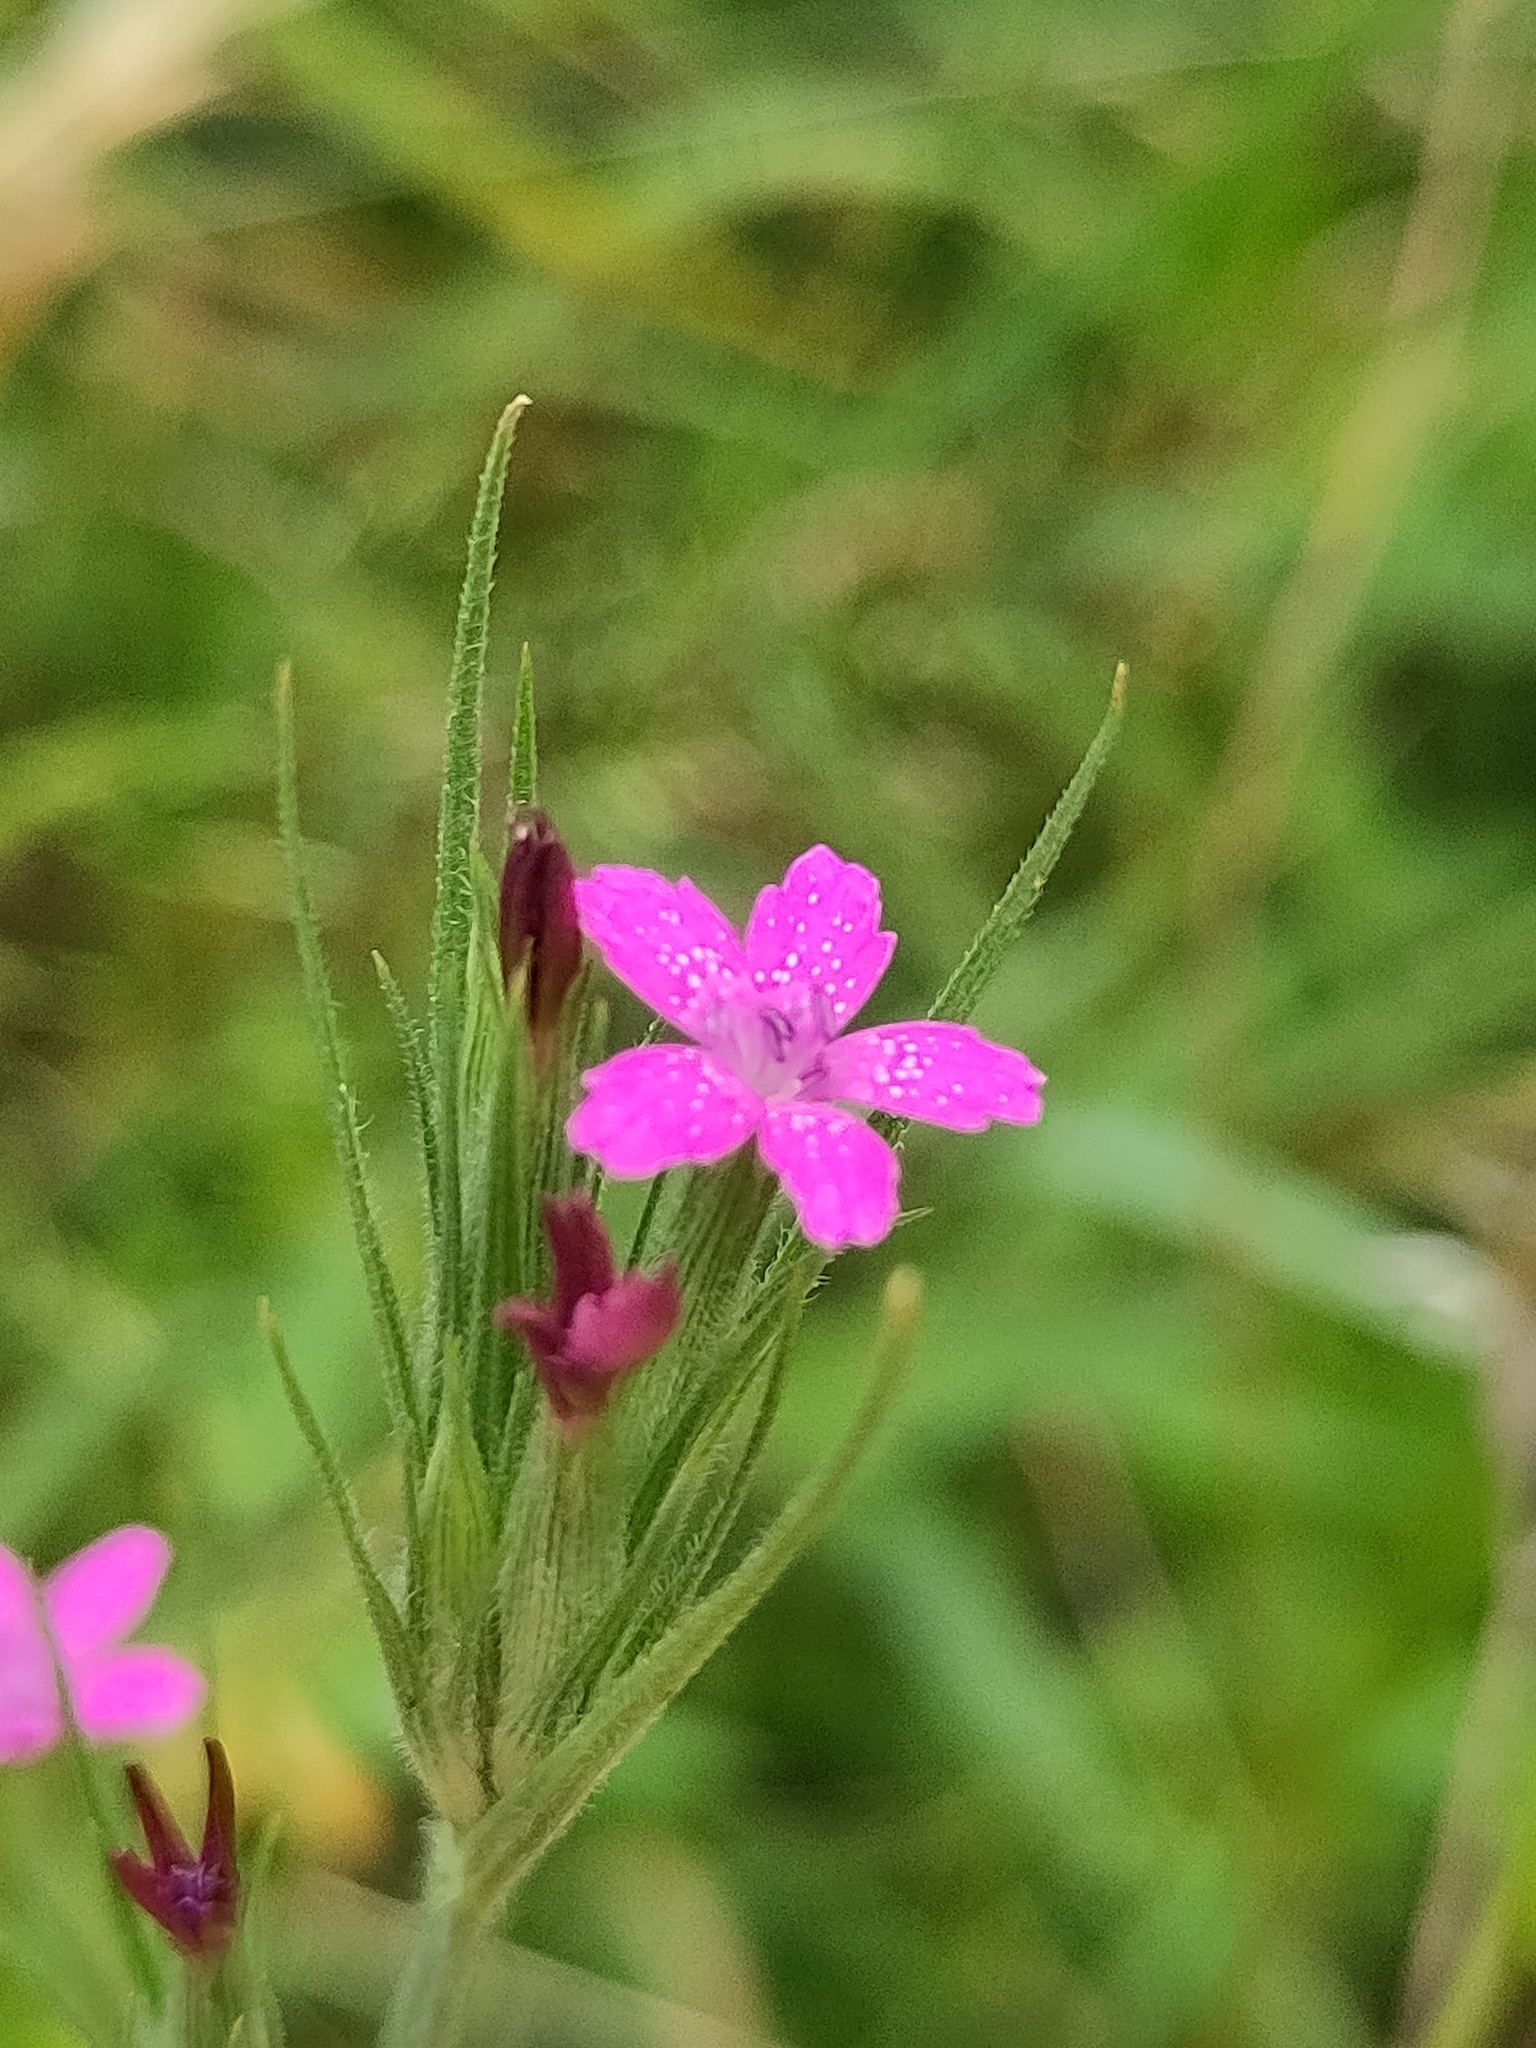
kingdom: Plantae
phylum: Tracheophyta
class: Magnoliopsida
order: Caryophyllales
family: Caryophyllaceae
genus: Dianthus
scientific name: Dianthus armeria
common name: Deptford pink
